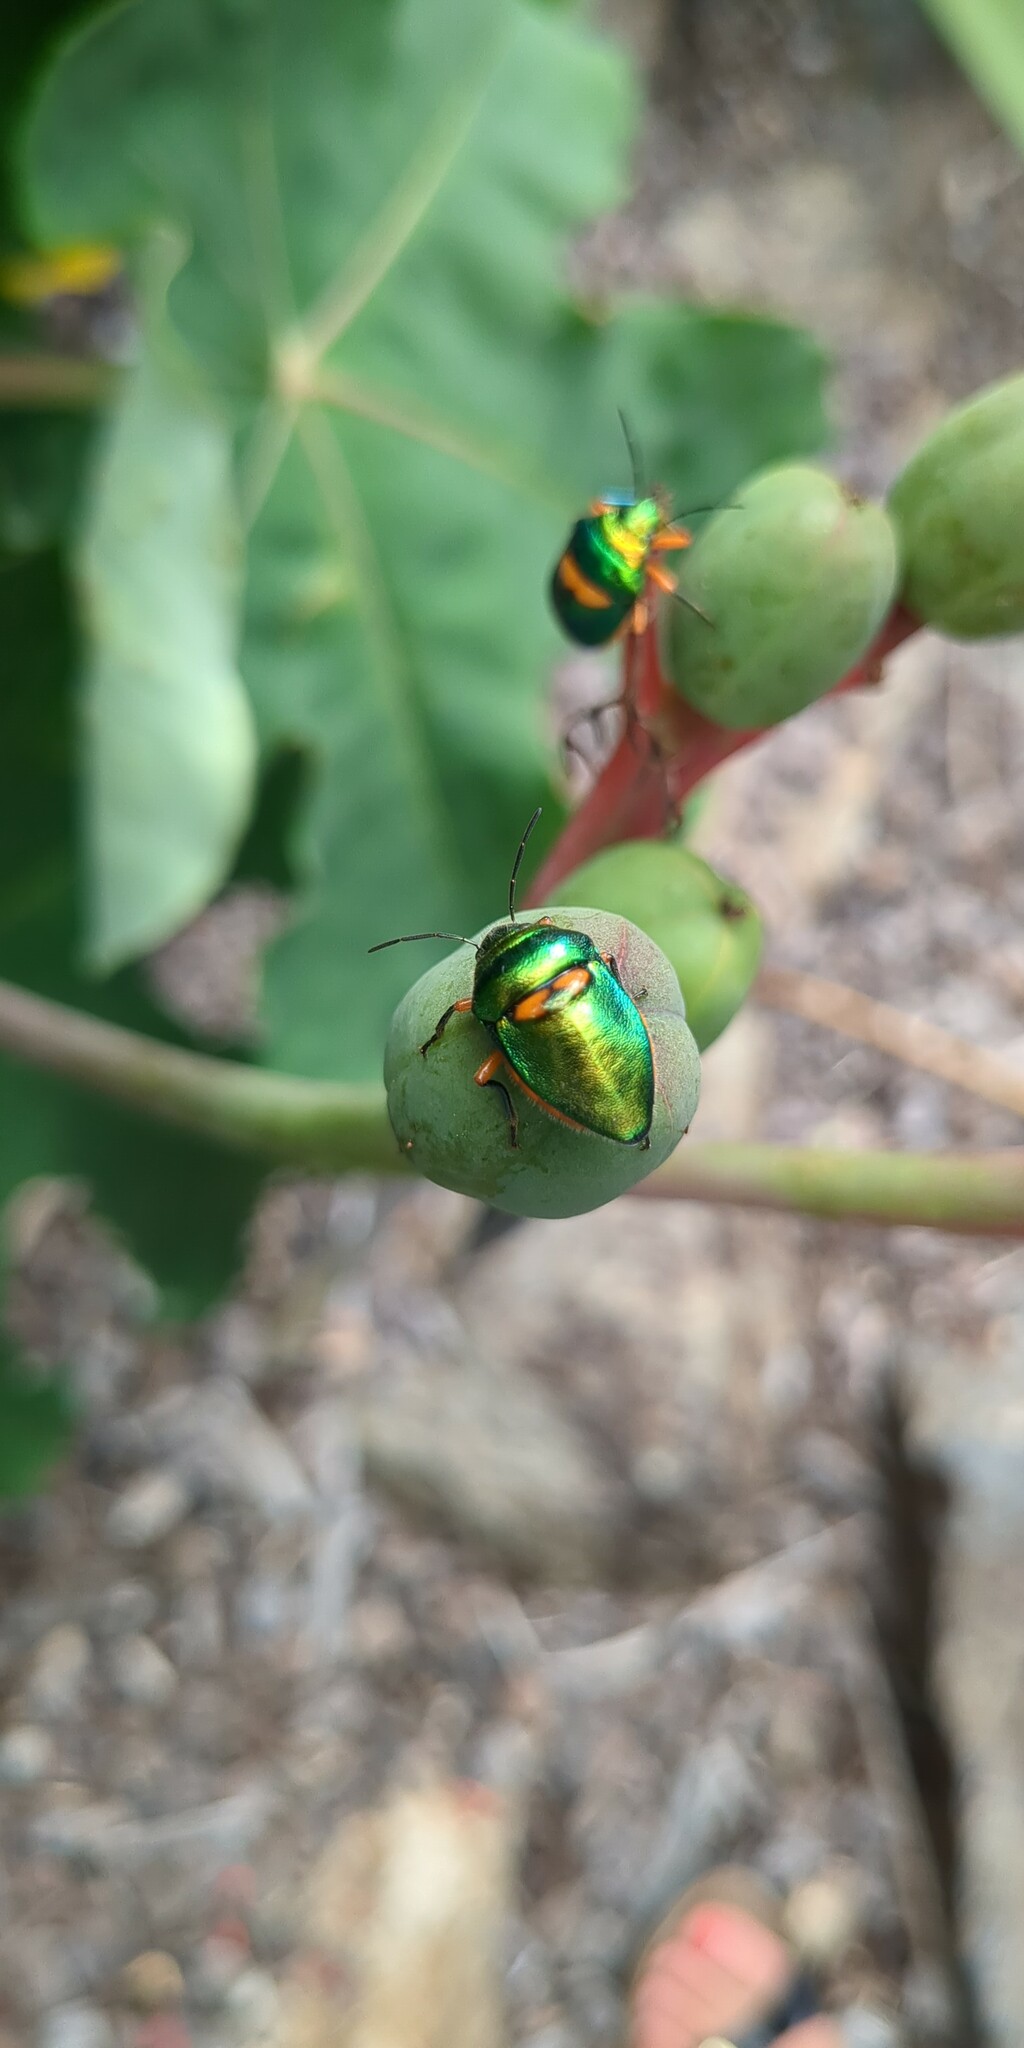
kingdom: Animalia
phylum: Arthropoda
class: Insecta
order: Hemiptera
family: Scutelleridae
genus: Lampromicra
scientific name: Lampromicra senator
